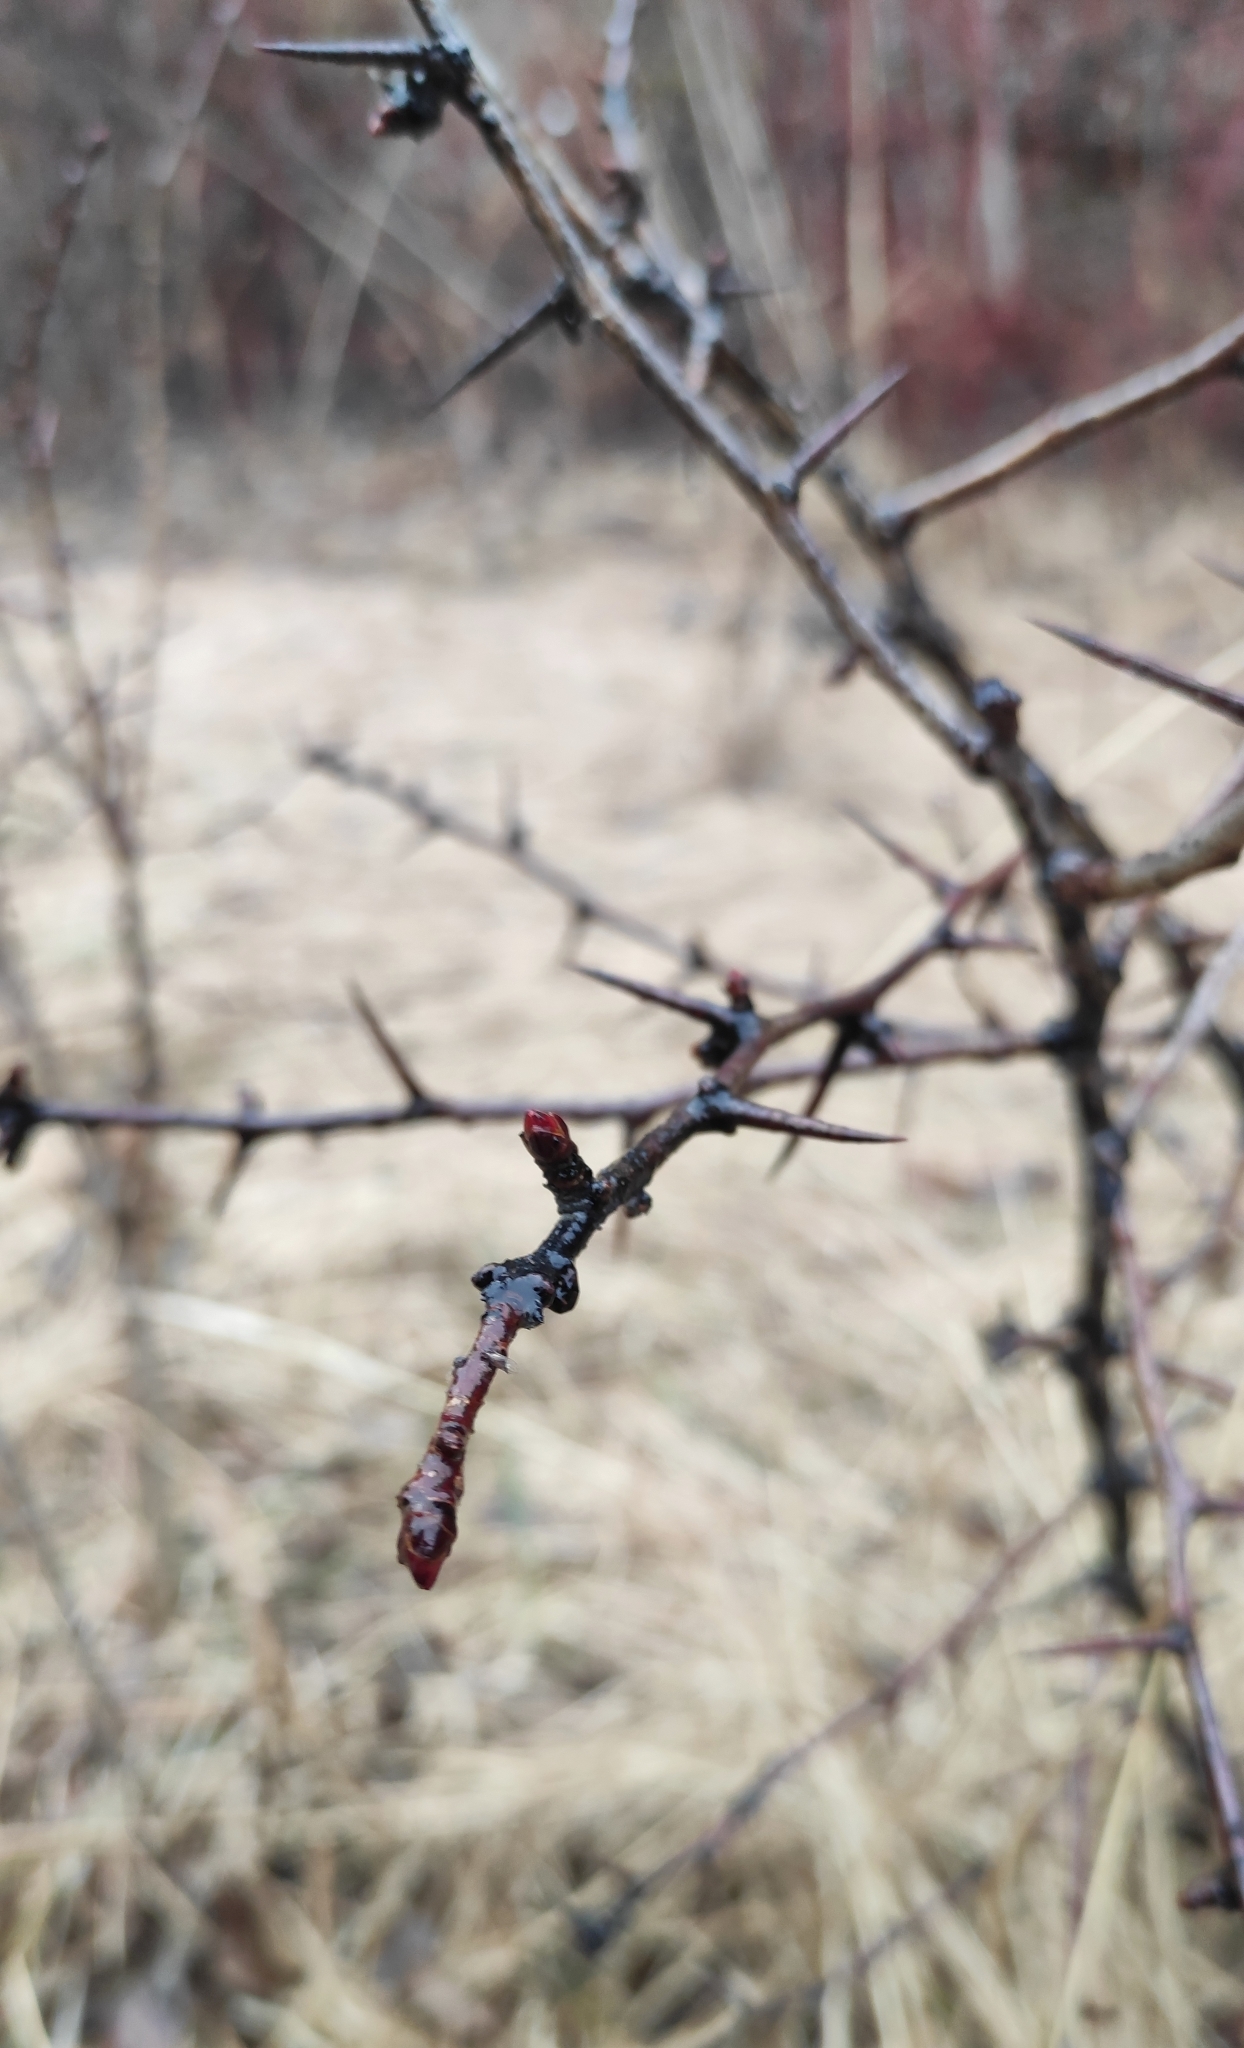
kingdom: Plantae
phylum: Tracheophyta
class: Magnoliopsida
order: Rosales
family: Rosaceae
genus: Crataegus
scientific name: Crataegus sanguinea
